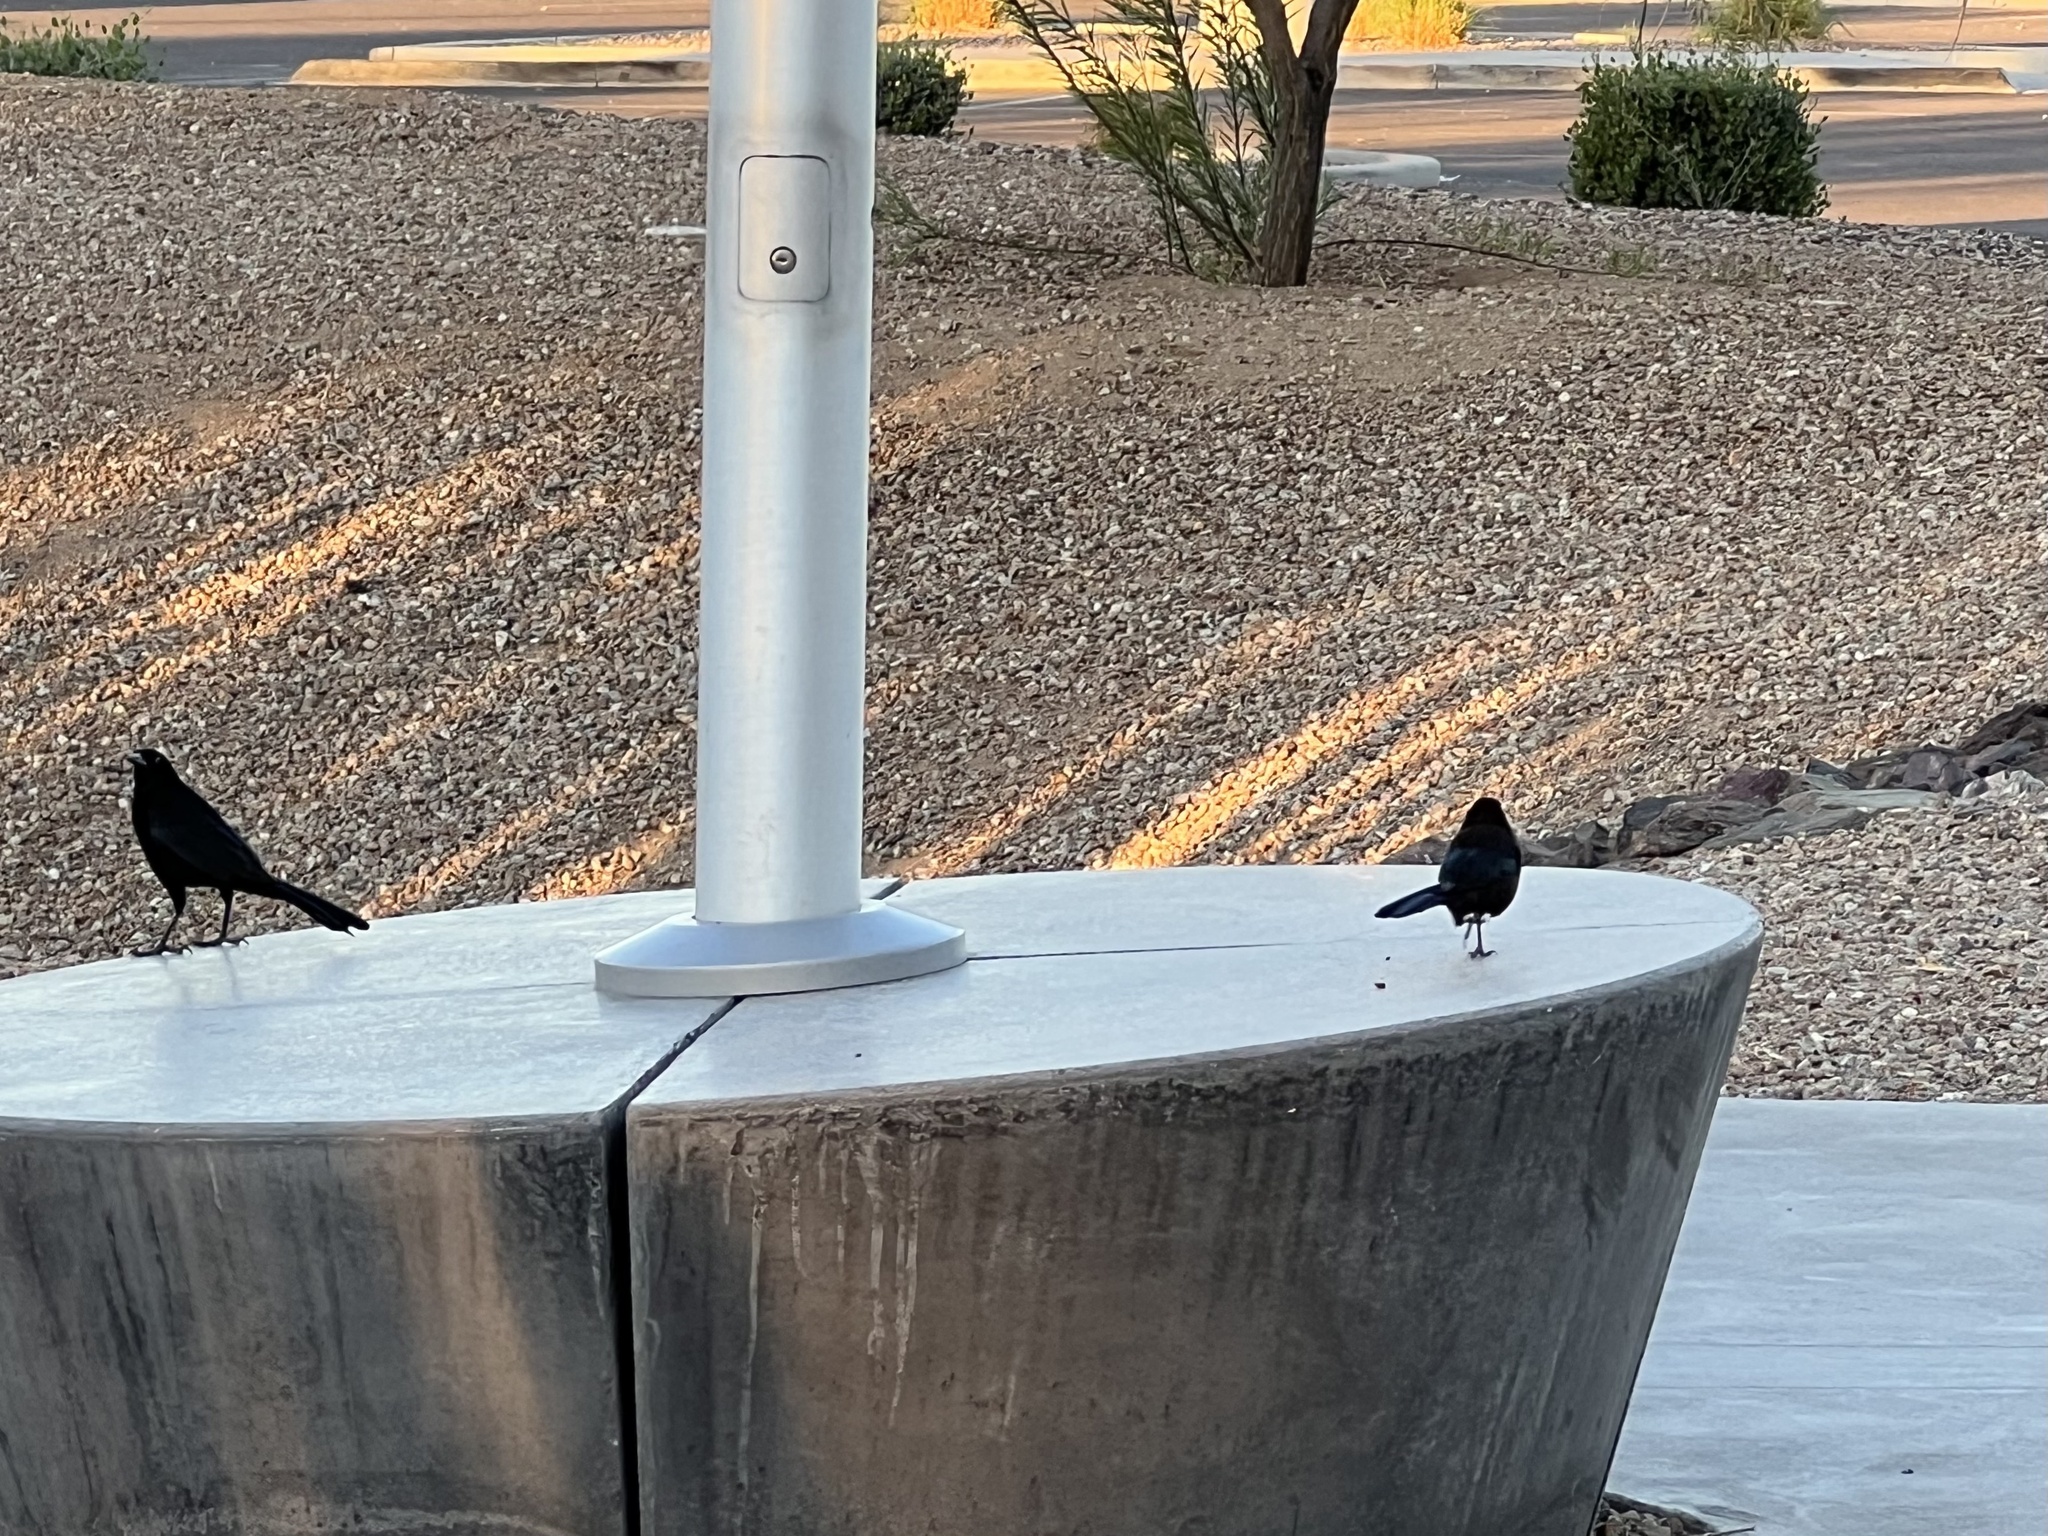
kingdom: Animalia
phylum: Chordata
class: Aves
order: Passeriformes
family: Icteridae
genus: Quiscalus
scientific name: Quiscalus mexicanus
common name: Great-tailed grackle
